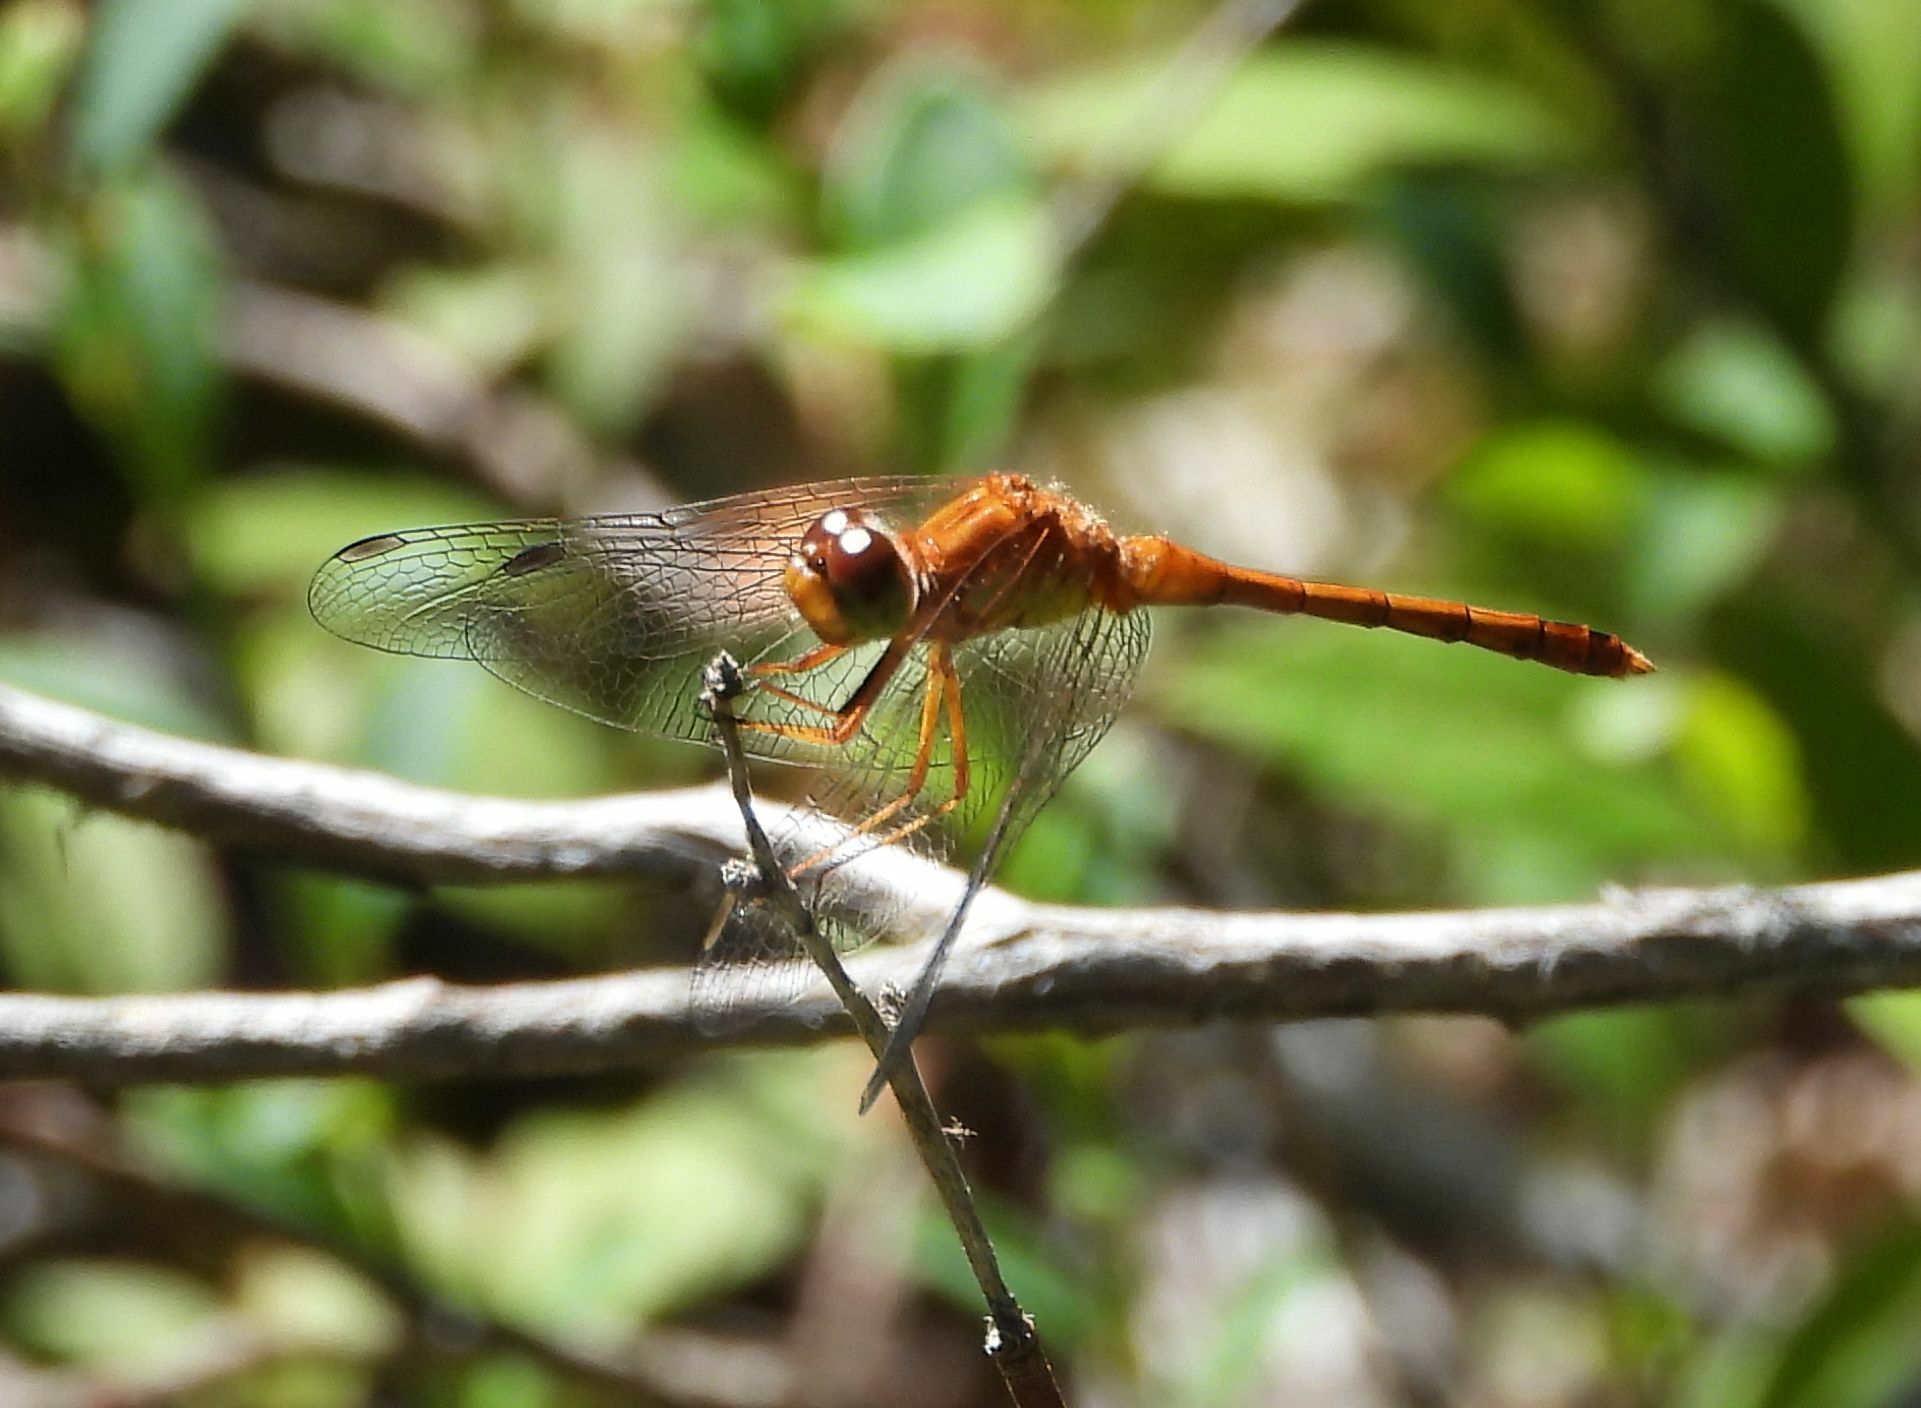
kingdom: Animalia
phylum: Arthropoda
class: Insecta
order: Odonata
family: Libellulidae
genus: Sympetrum
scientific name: Sympetrum vicinum
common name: Autumn meadowhawk
